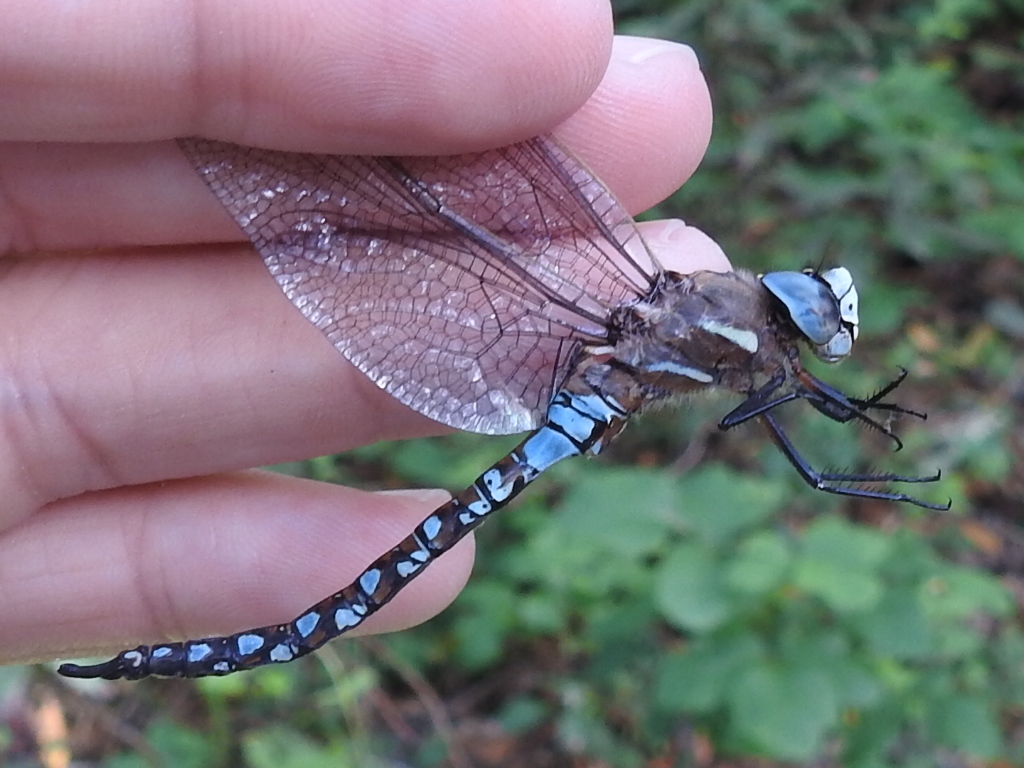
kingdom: Animalia
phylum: Arthropoda
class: Insecta
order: Odonata
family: Aeshnidae
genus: Rhionaeschna
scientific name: Rhionaeschna californica
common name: California darner
